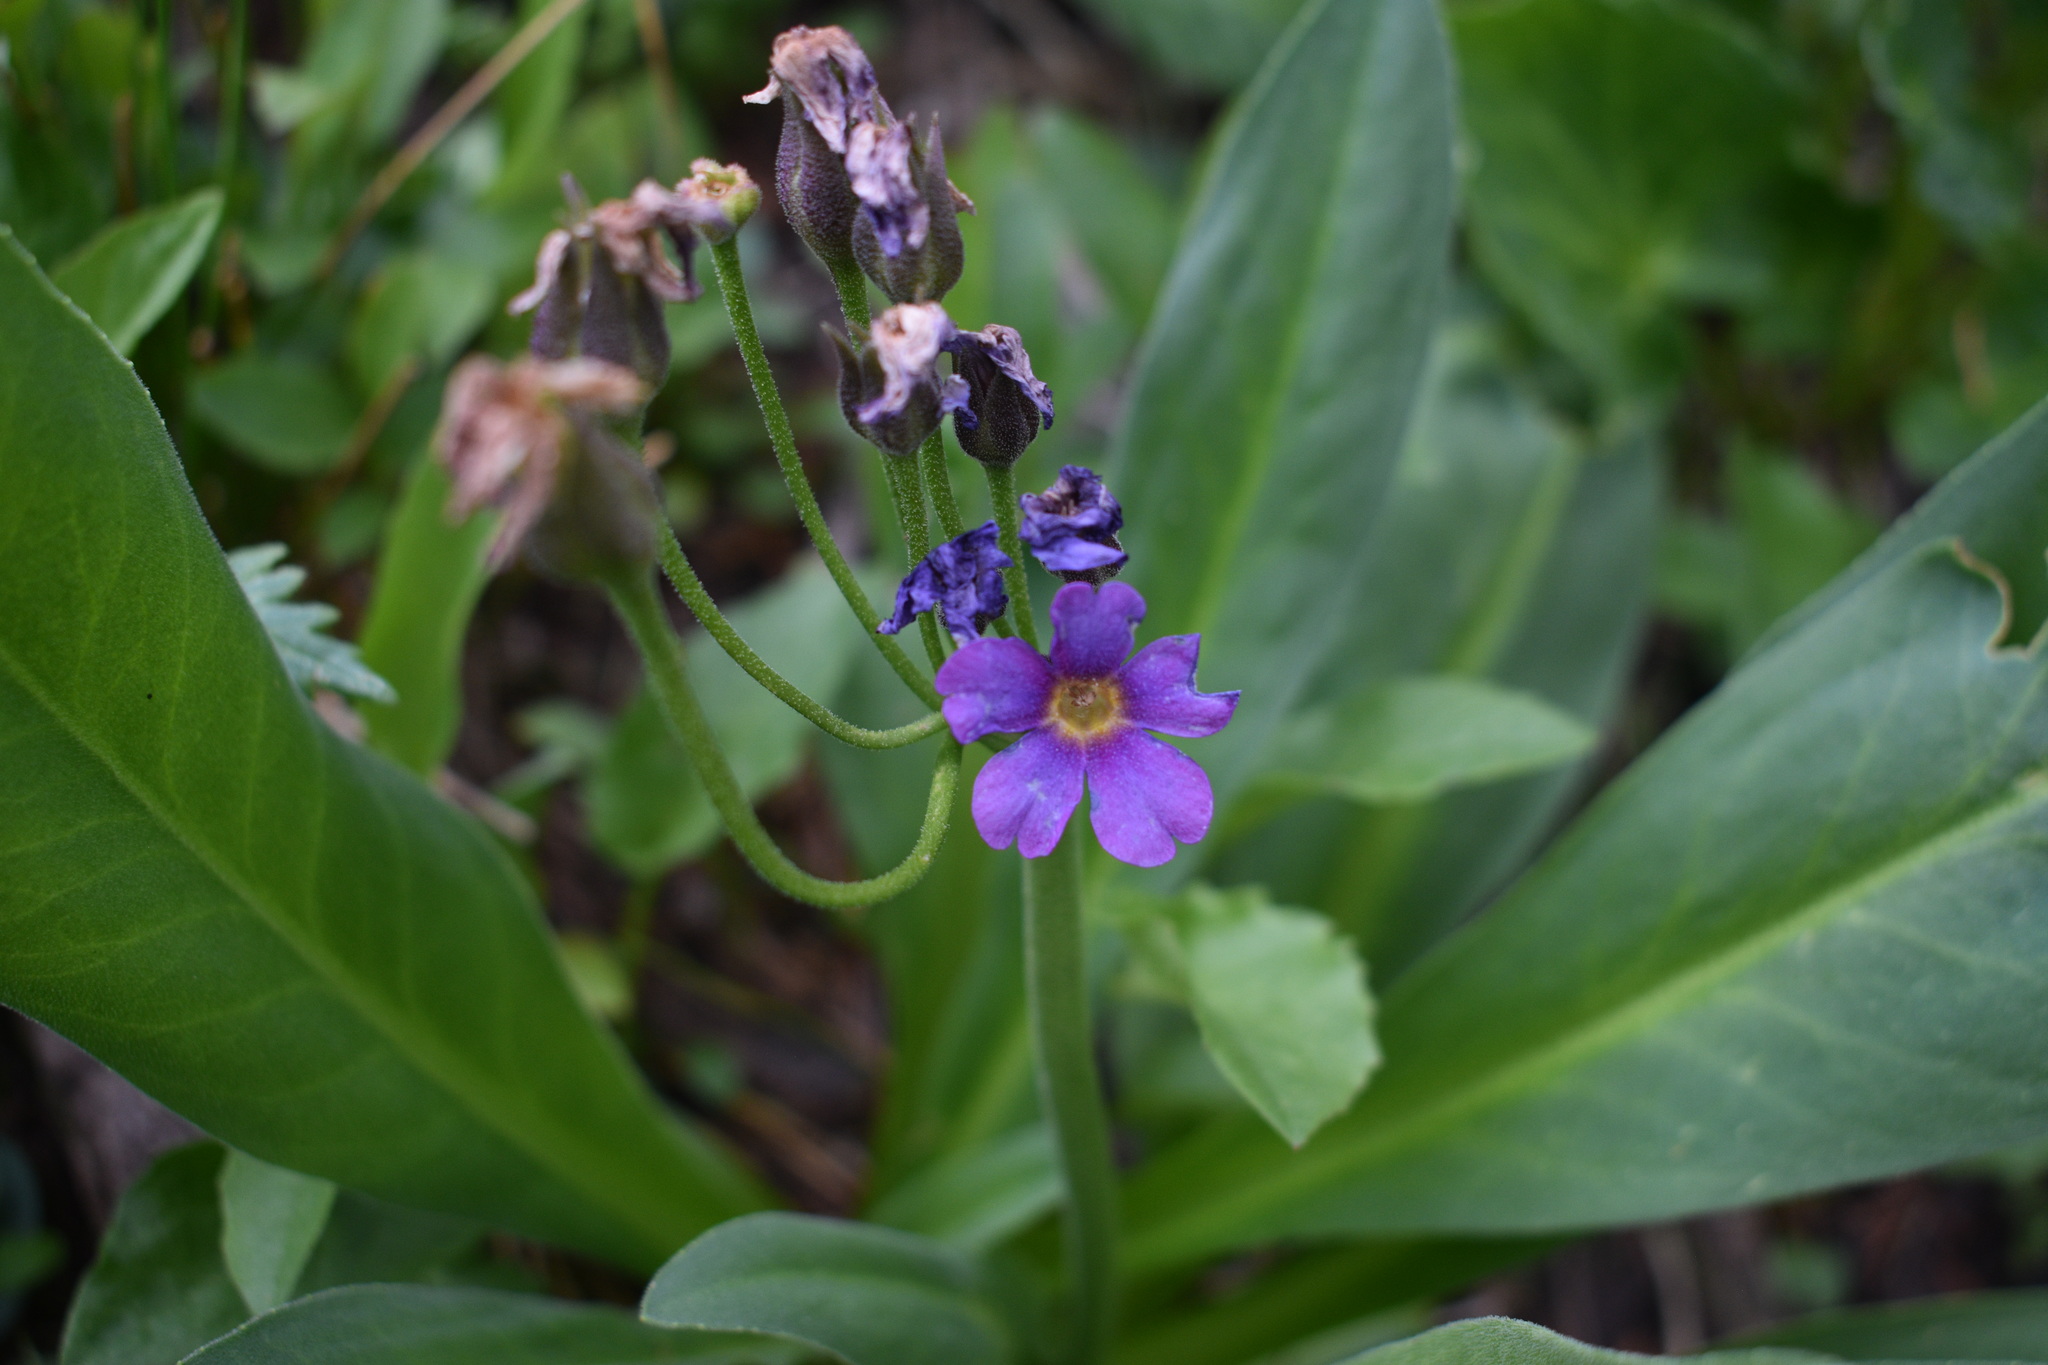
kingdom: Plantae
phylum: Tracheophyta
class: Magnoliopsida
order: Ericales
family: Primulaceae
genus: Primula
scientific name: Primula parryi
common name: Parry's primrose
